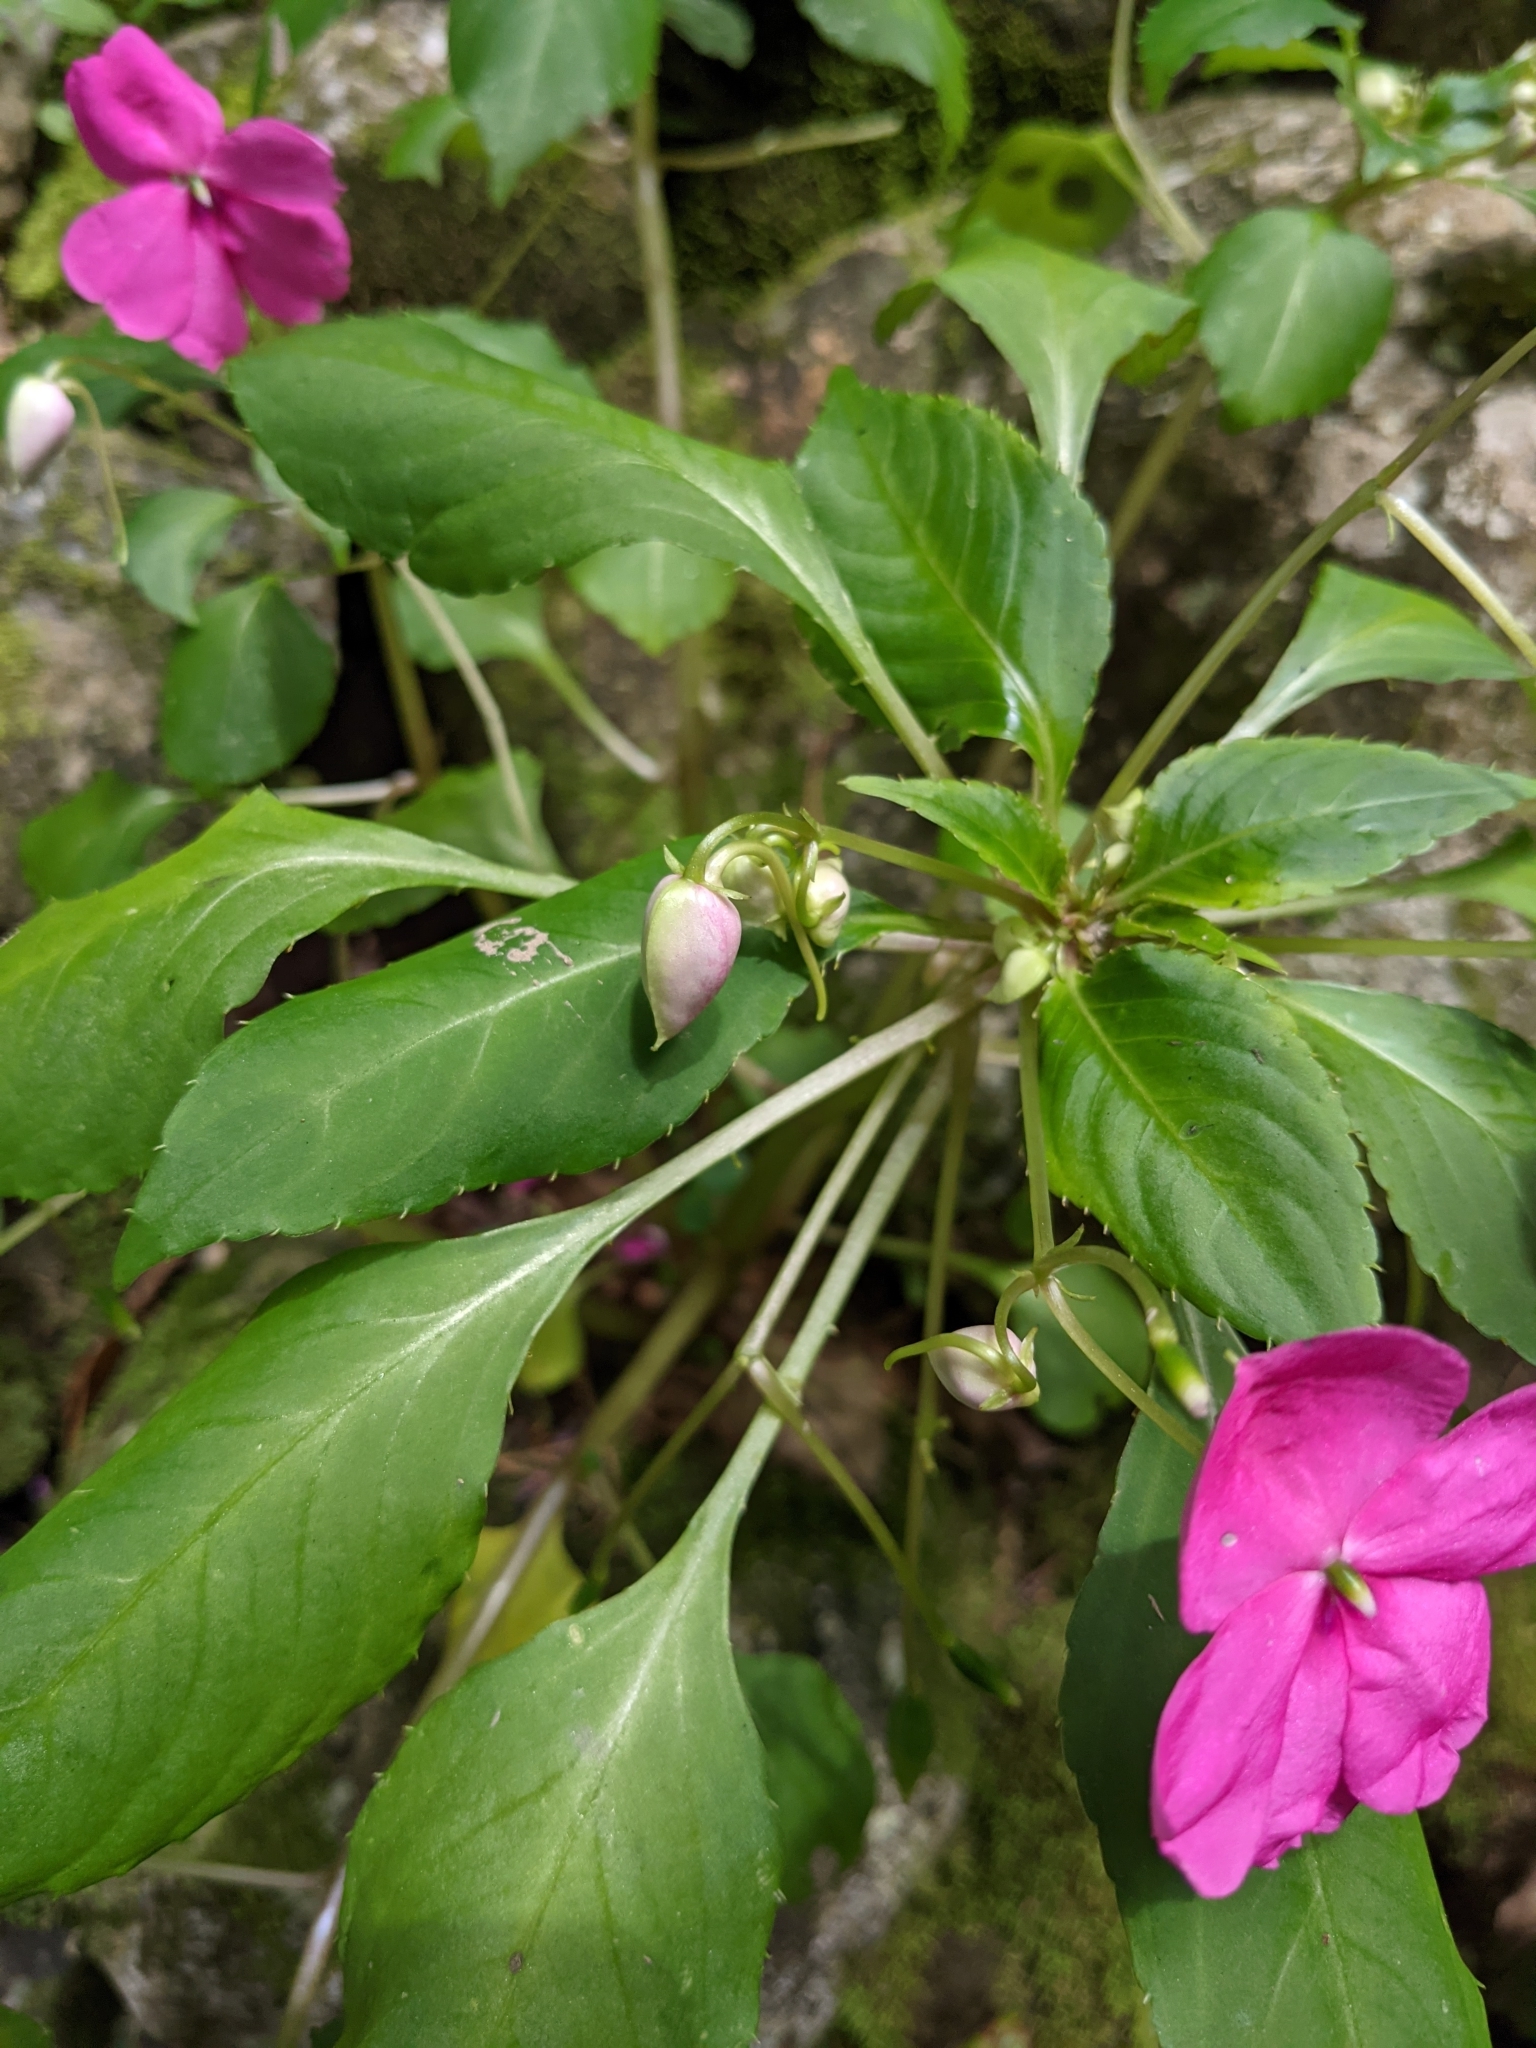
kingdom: Plantae
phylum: Tracheophyta
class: Magnoliopsida
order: Ericales
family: Balsaminaceae
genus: Impatiens
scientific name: Impatiens walleriana
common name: Buzzy lizzy
